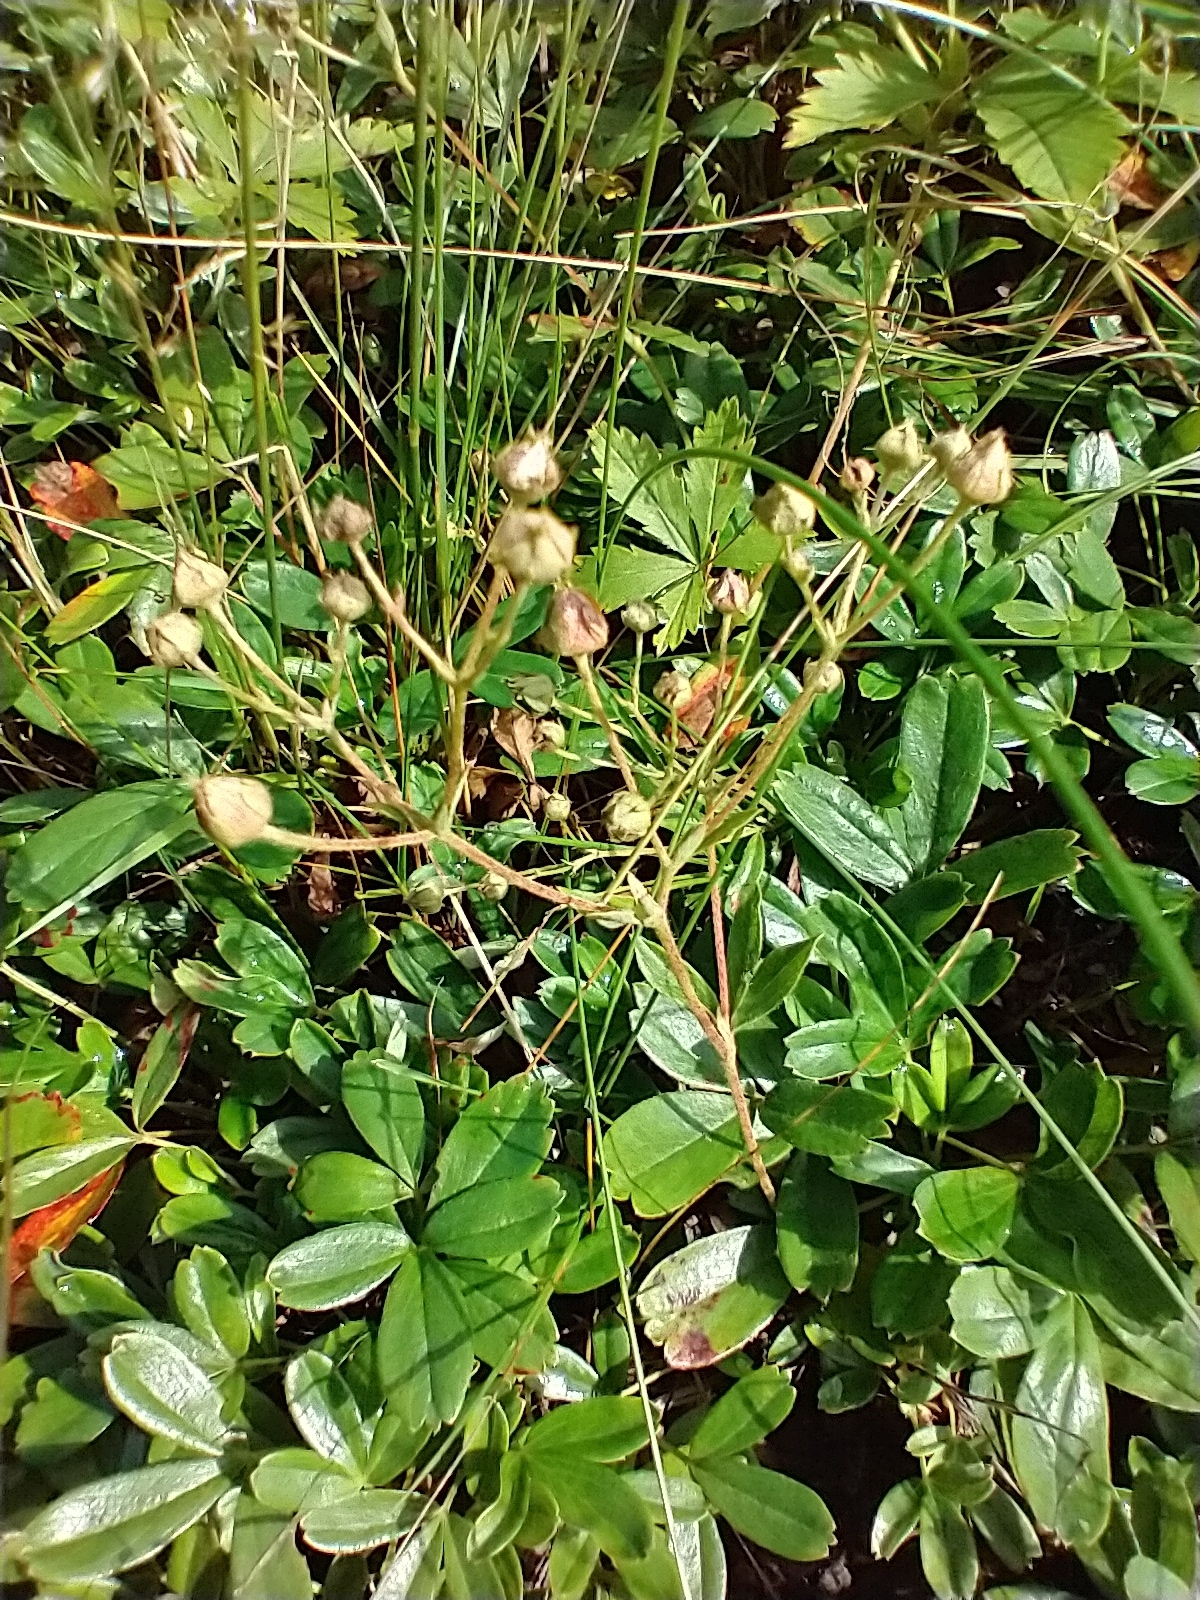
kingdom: Plantae
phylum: Tracheophyta
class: Magnoliopsida
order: Rosales
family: Rosaceae
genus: Sibbaldia
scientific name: Sibbaldia tridentata
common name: Three-toothed cinquefoil
